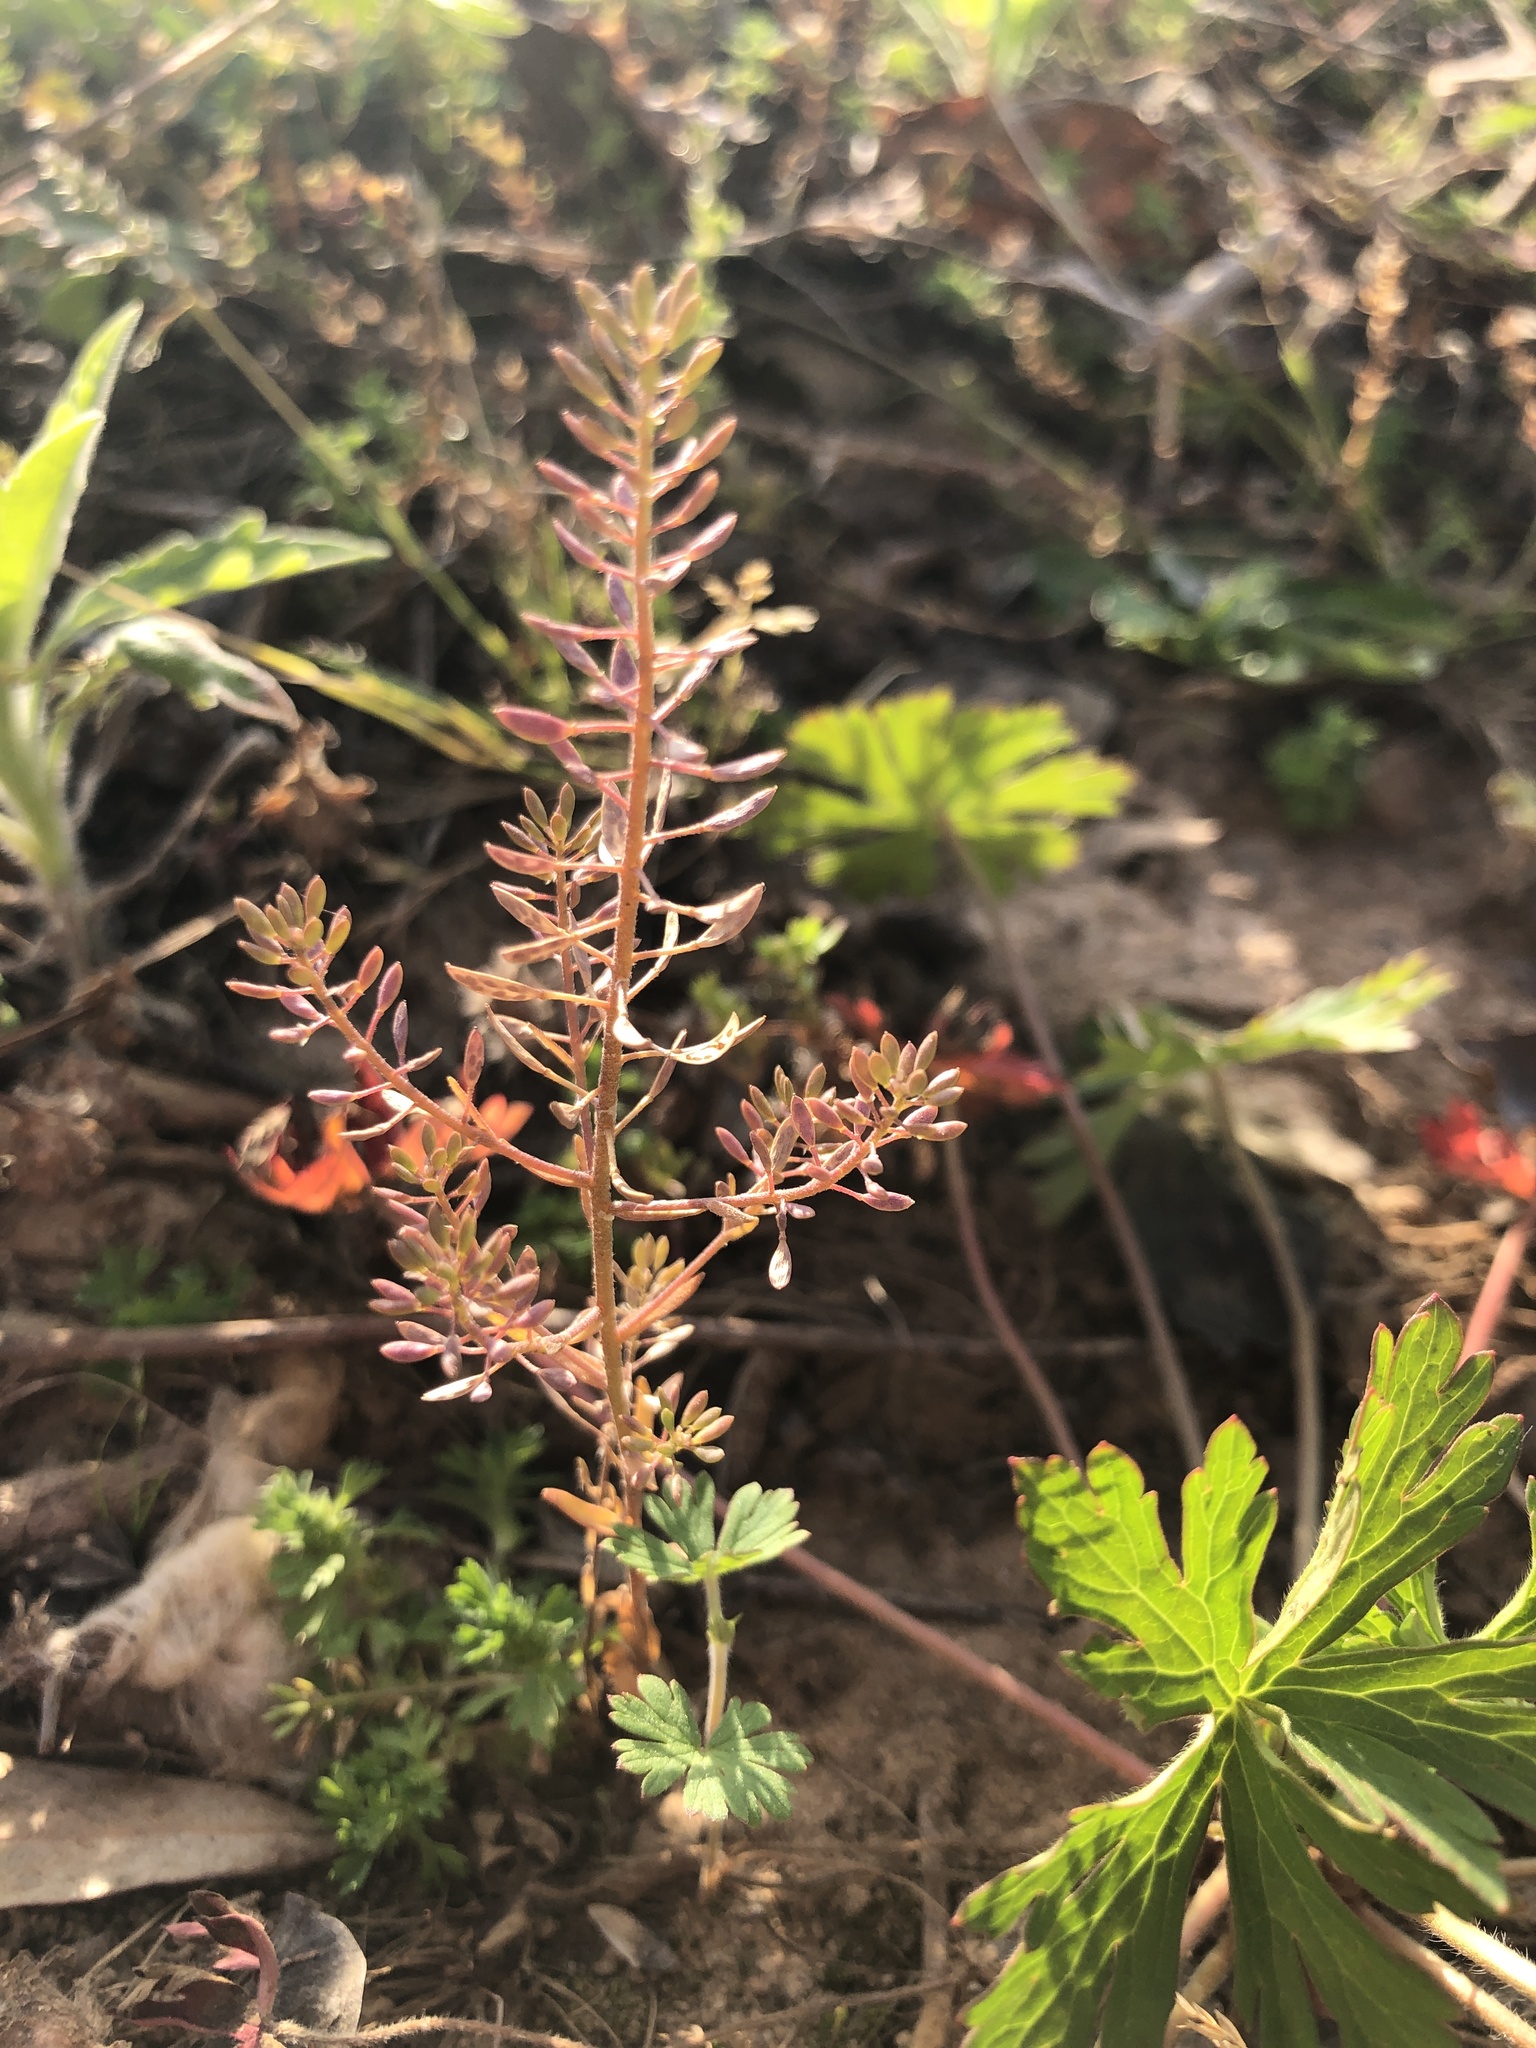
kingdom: Plantae
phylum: Tracheophyta
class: Magnoliopsida
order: Brassicales
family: Brassicaceae
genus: Abdra
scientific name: Abdra brachycarpa
